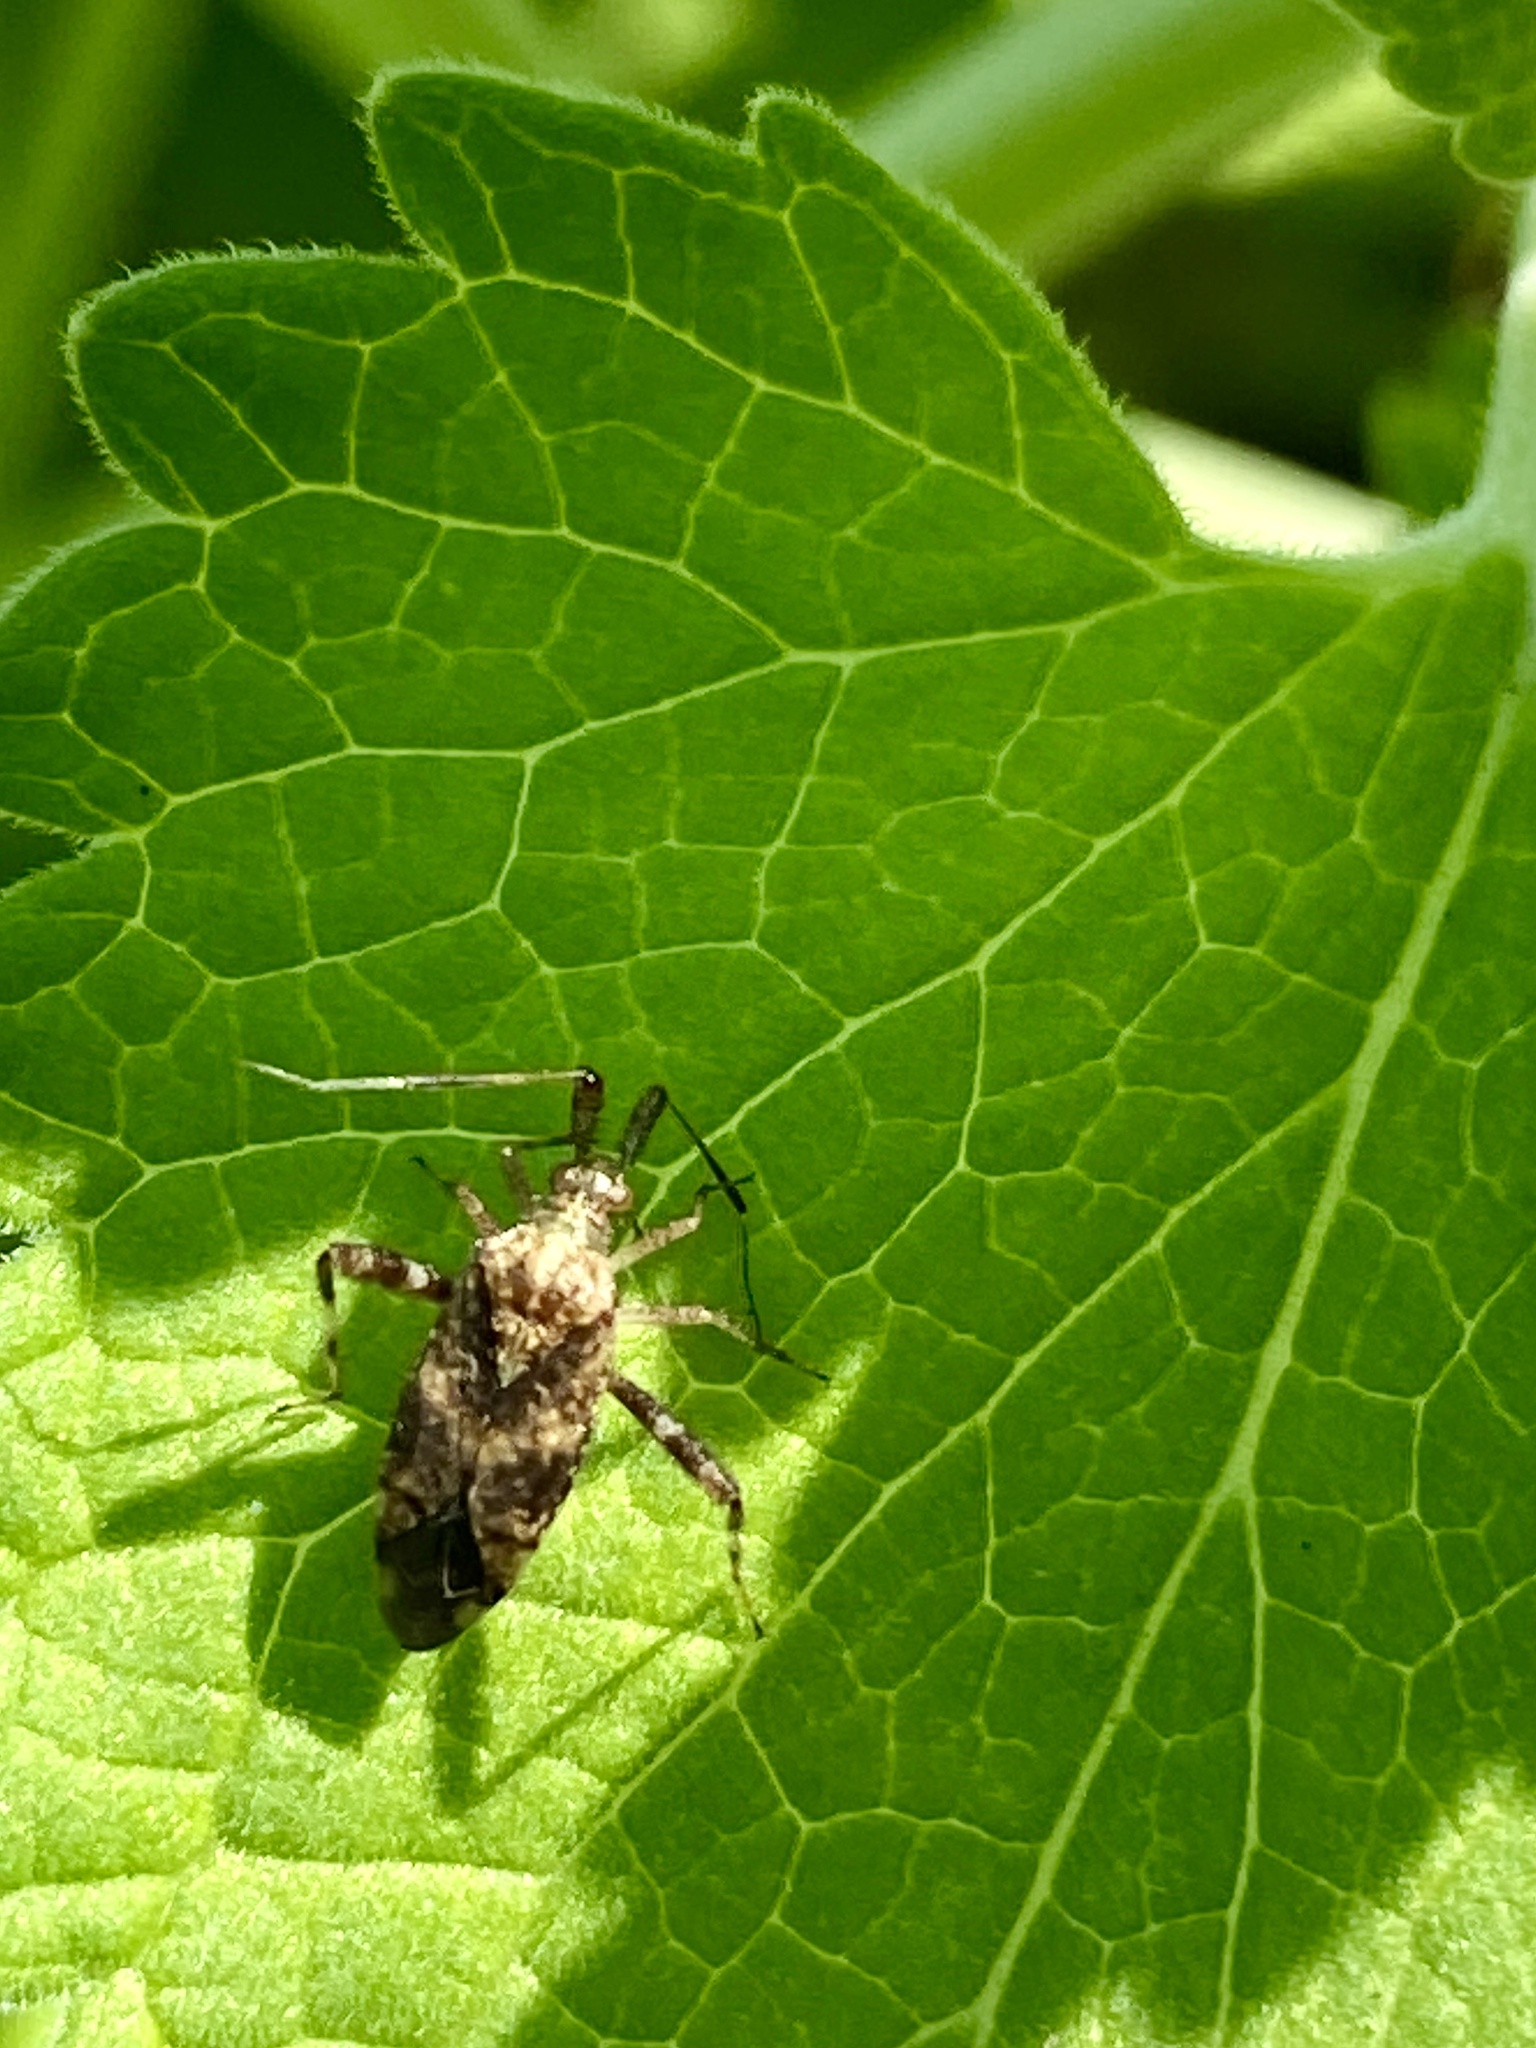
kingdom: Animalia
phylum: Arthropoda
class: Insecta
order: Hemiptera
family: Miridae
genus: Neurocolpus
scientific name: Neurocolpus nubilus
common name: Clouded plant bug
